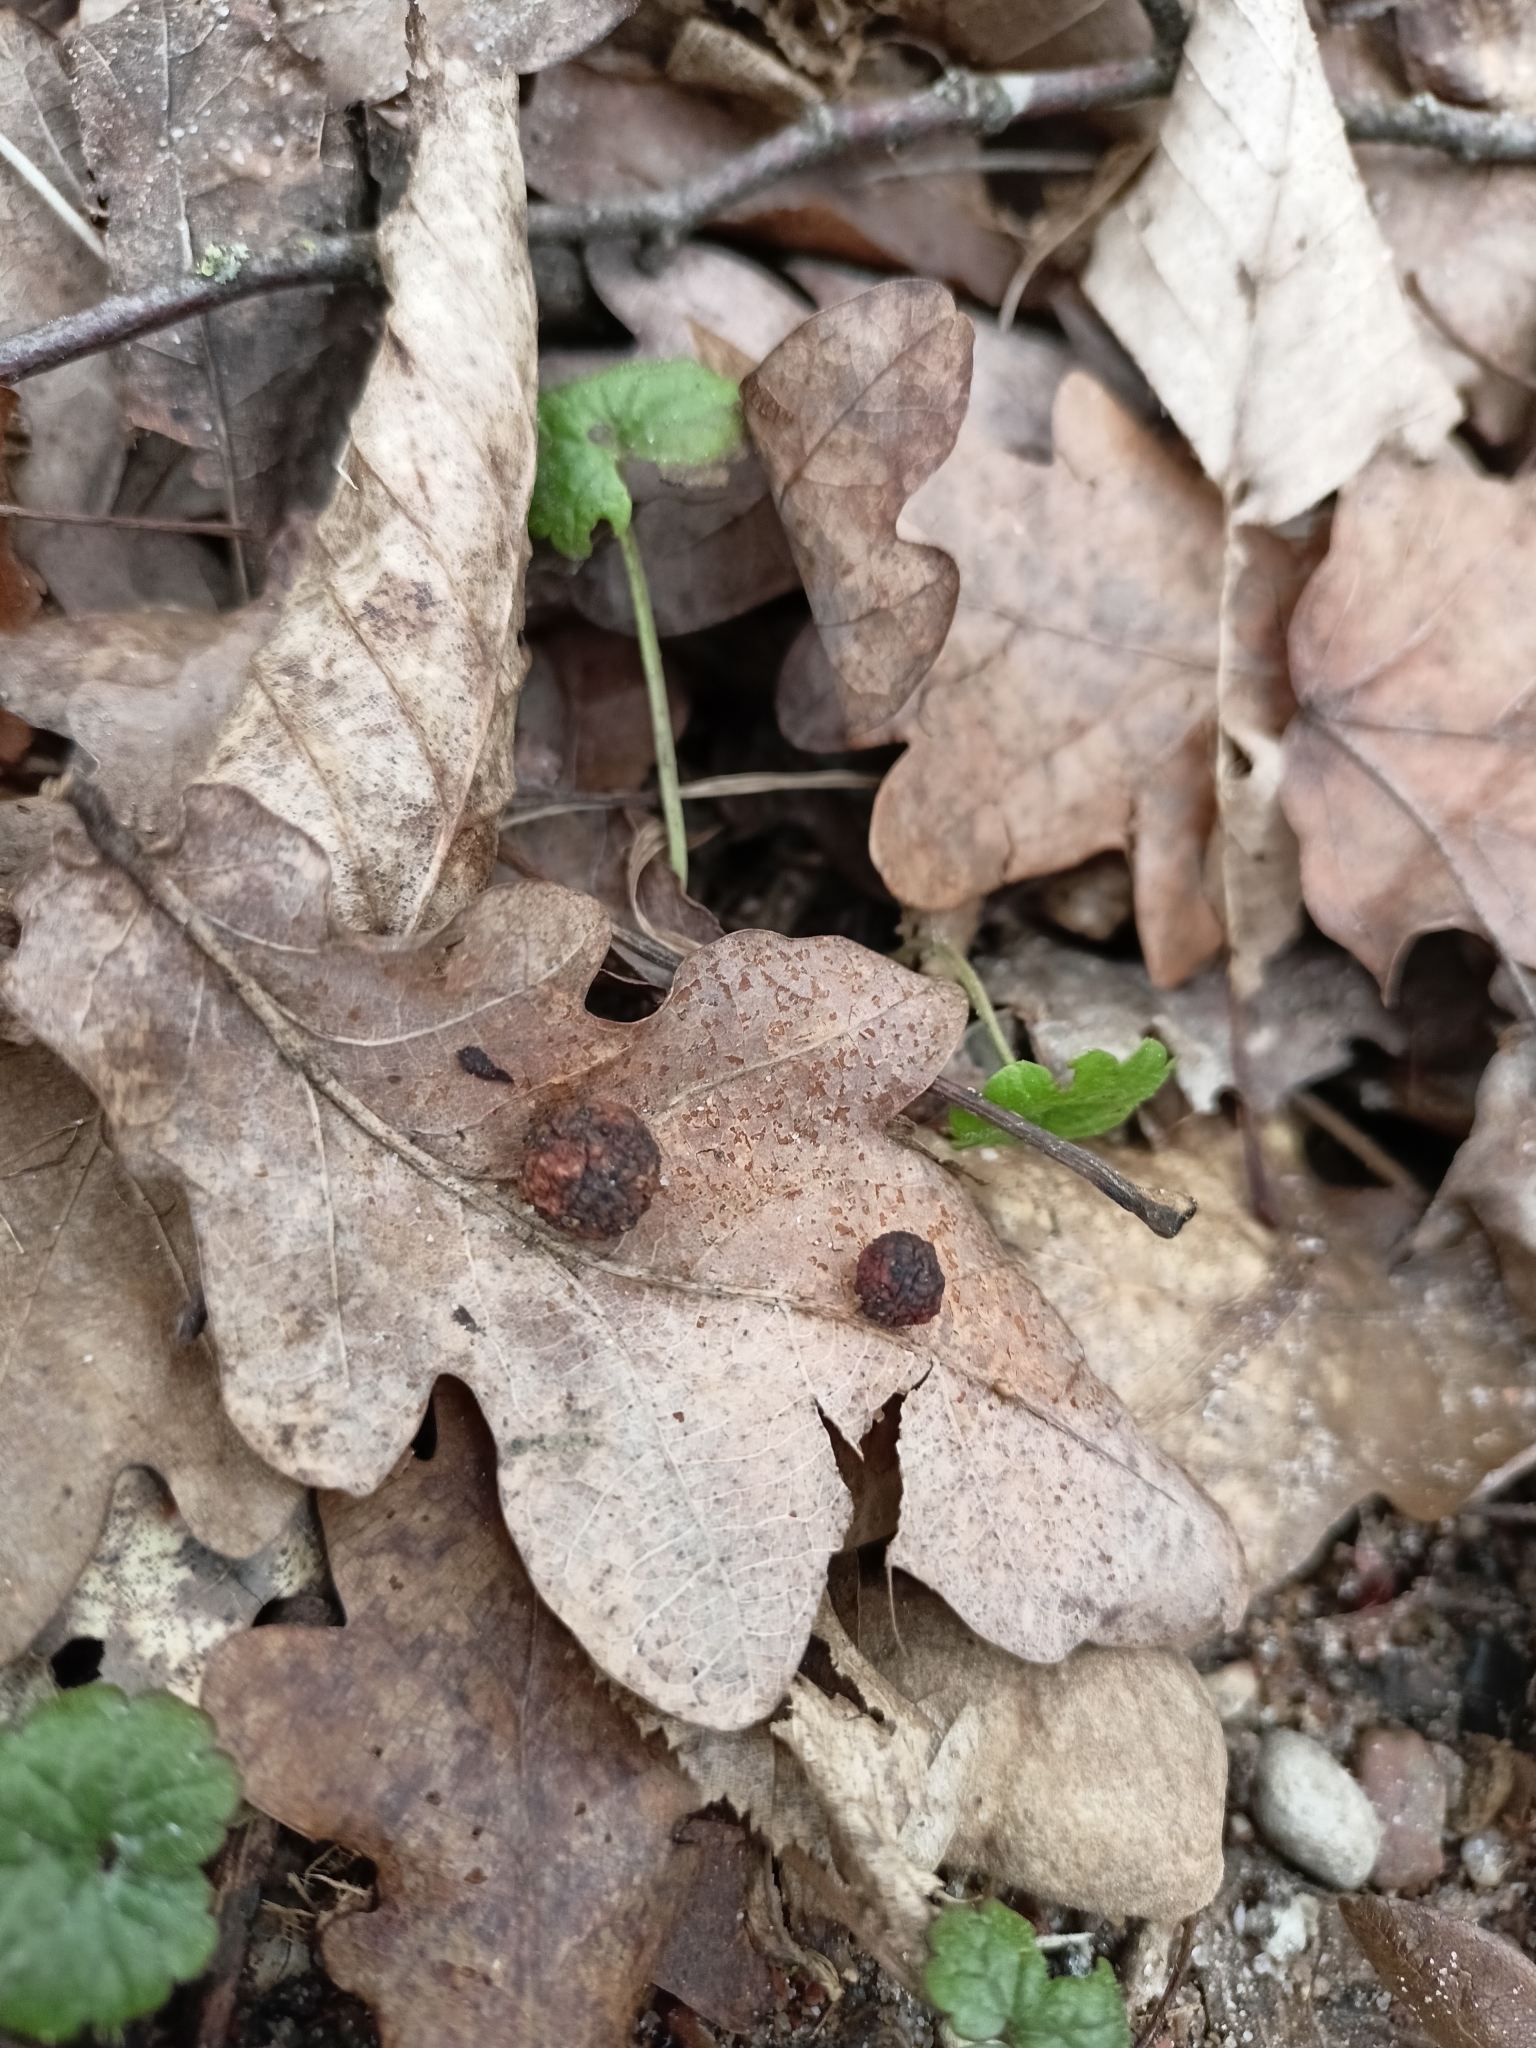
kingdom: Animalia
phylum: Arthropoda
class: Insecta
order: Hymenoptera
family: Cynipidae
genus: Cynips
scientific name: Cynips quercusfolii
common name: Cherry gall
